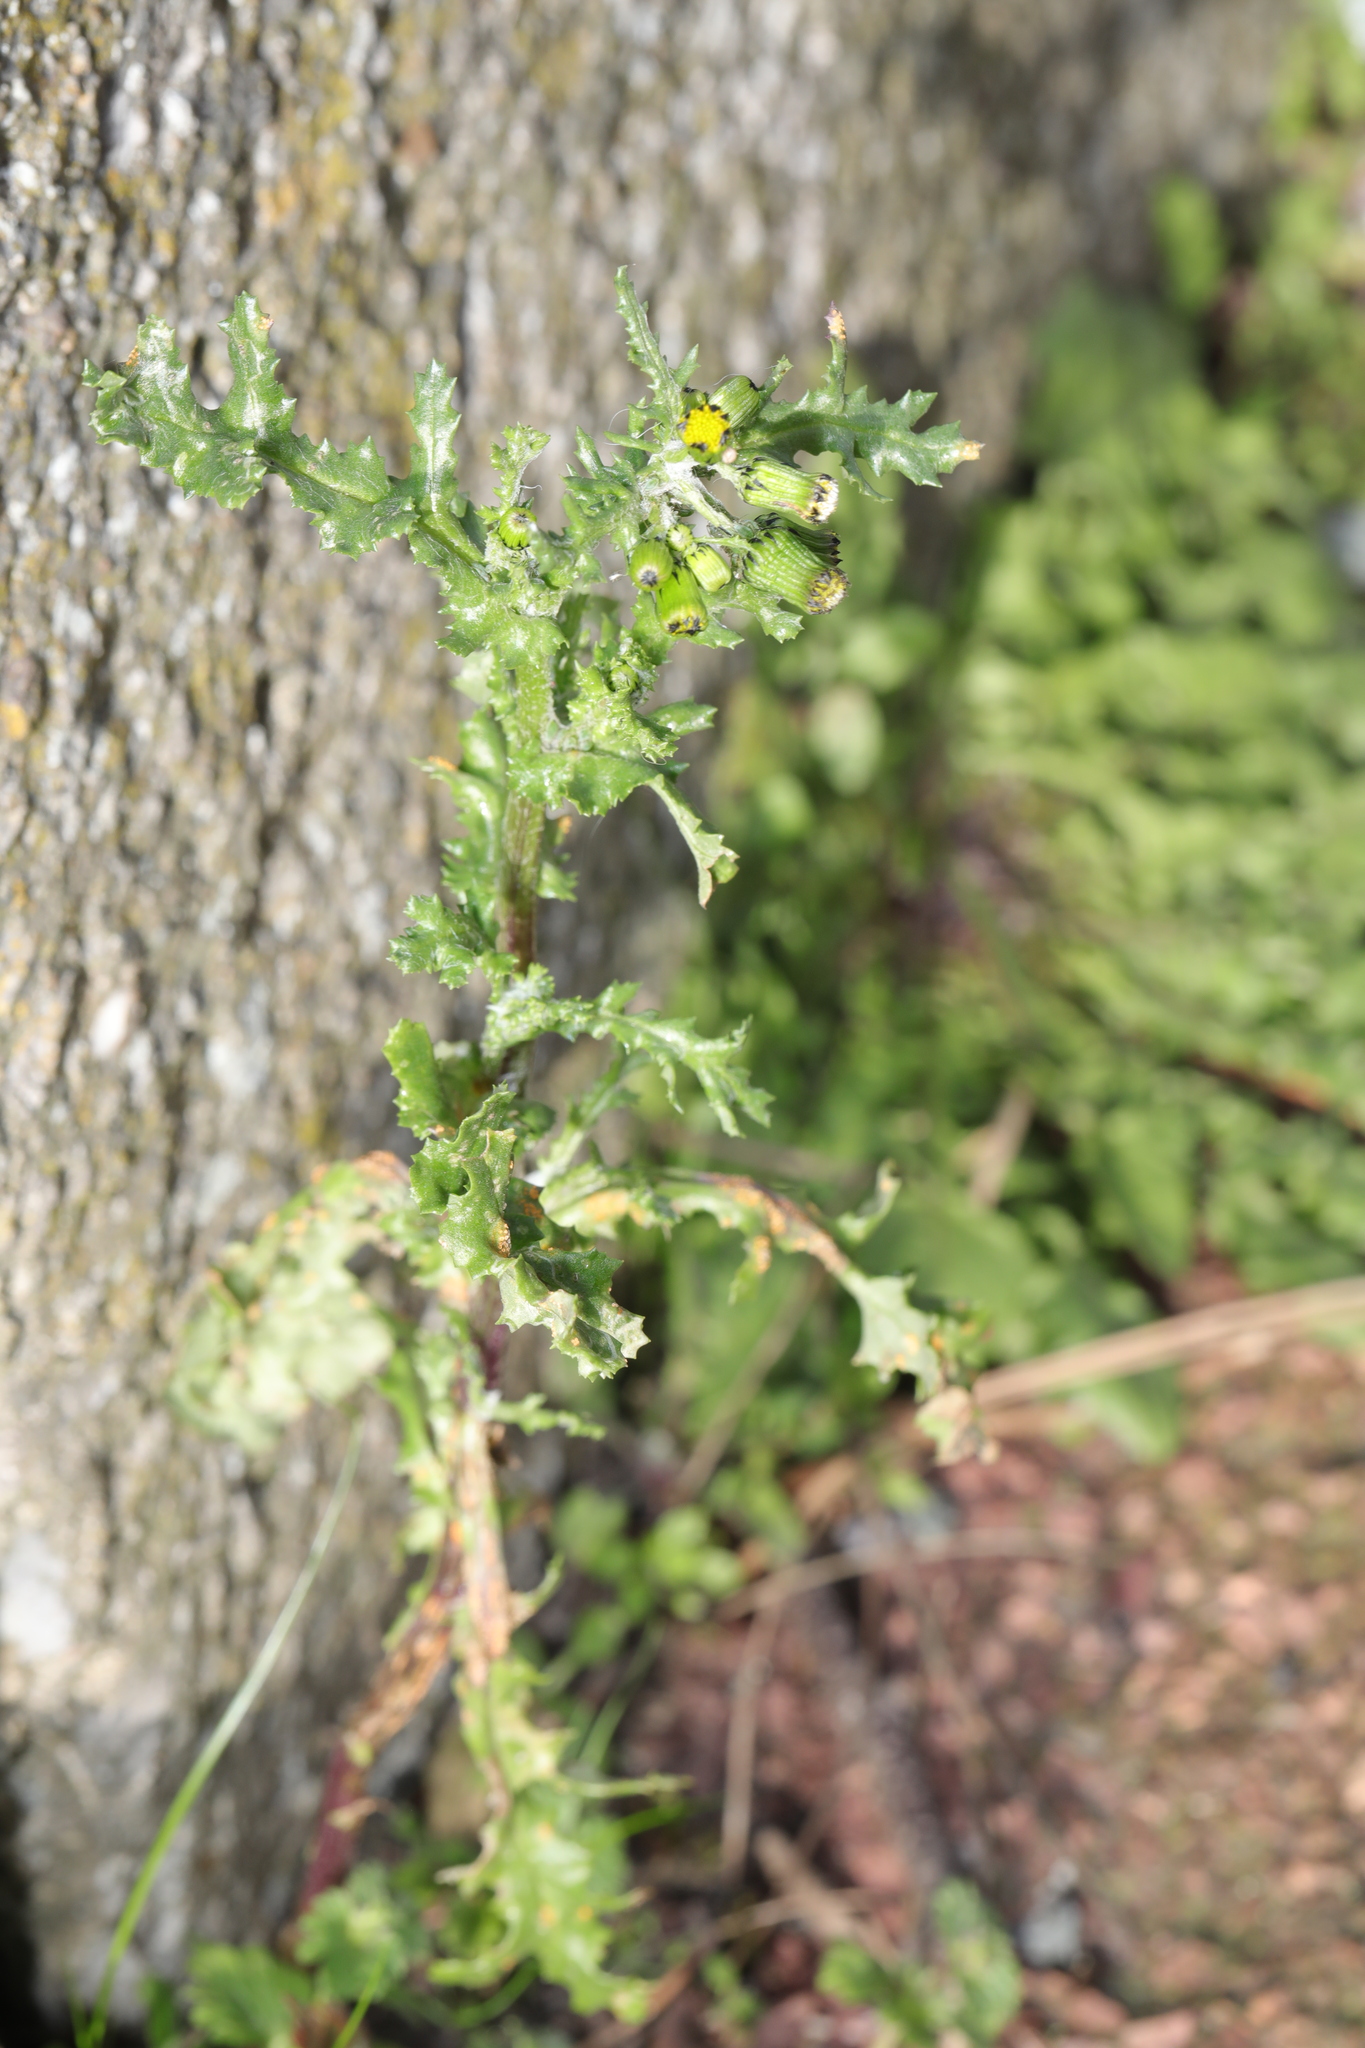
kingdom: Plantae
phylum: Tracheophyta
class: Magnoliopsida
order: Asterales
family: Asteraceae
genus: Senecio
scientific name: Senecio vulgaris
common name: Old-man-in-the-spring
